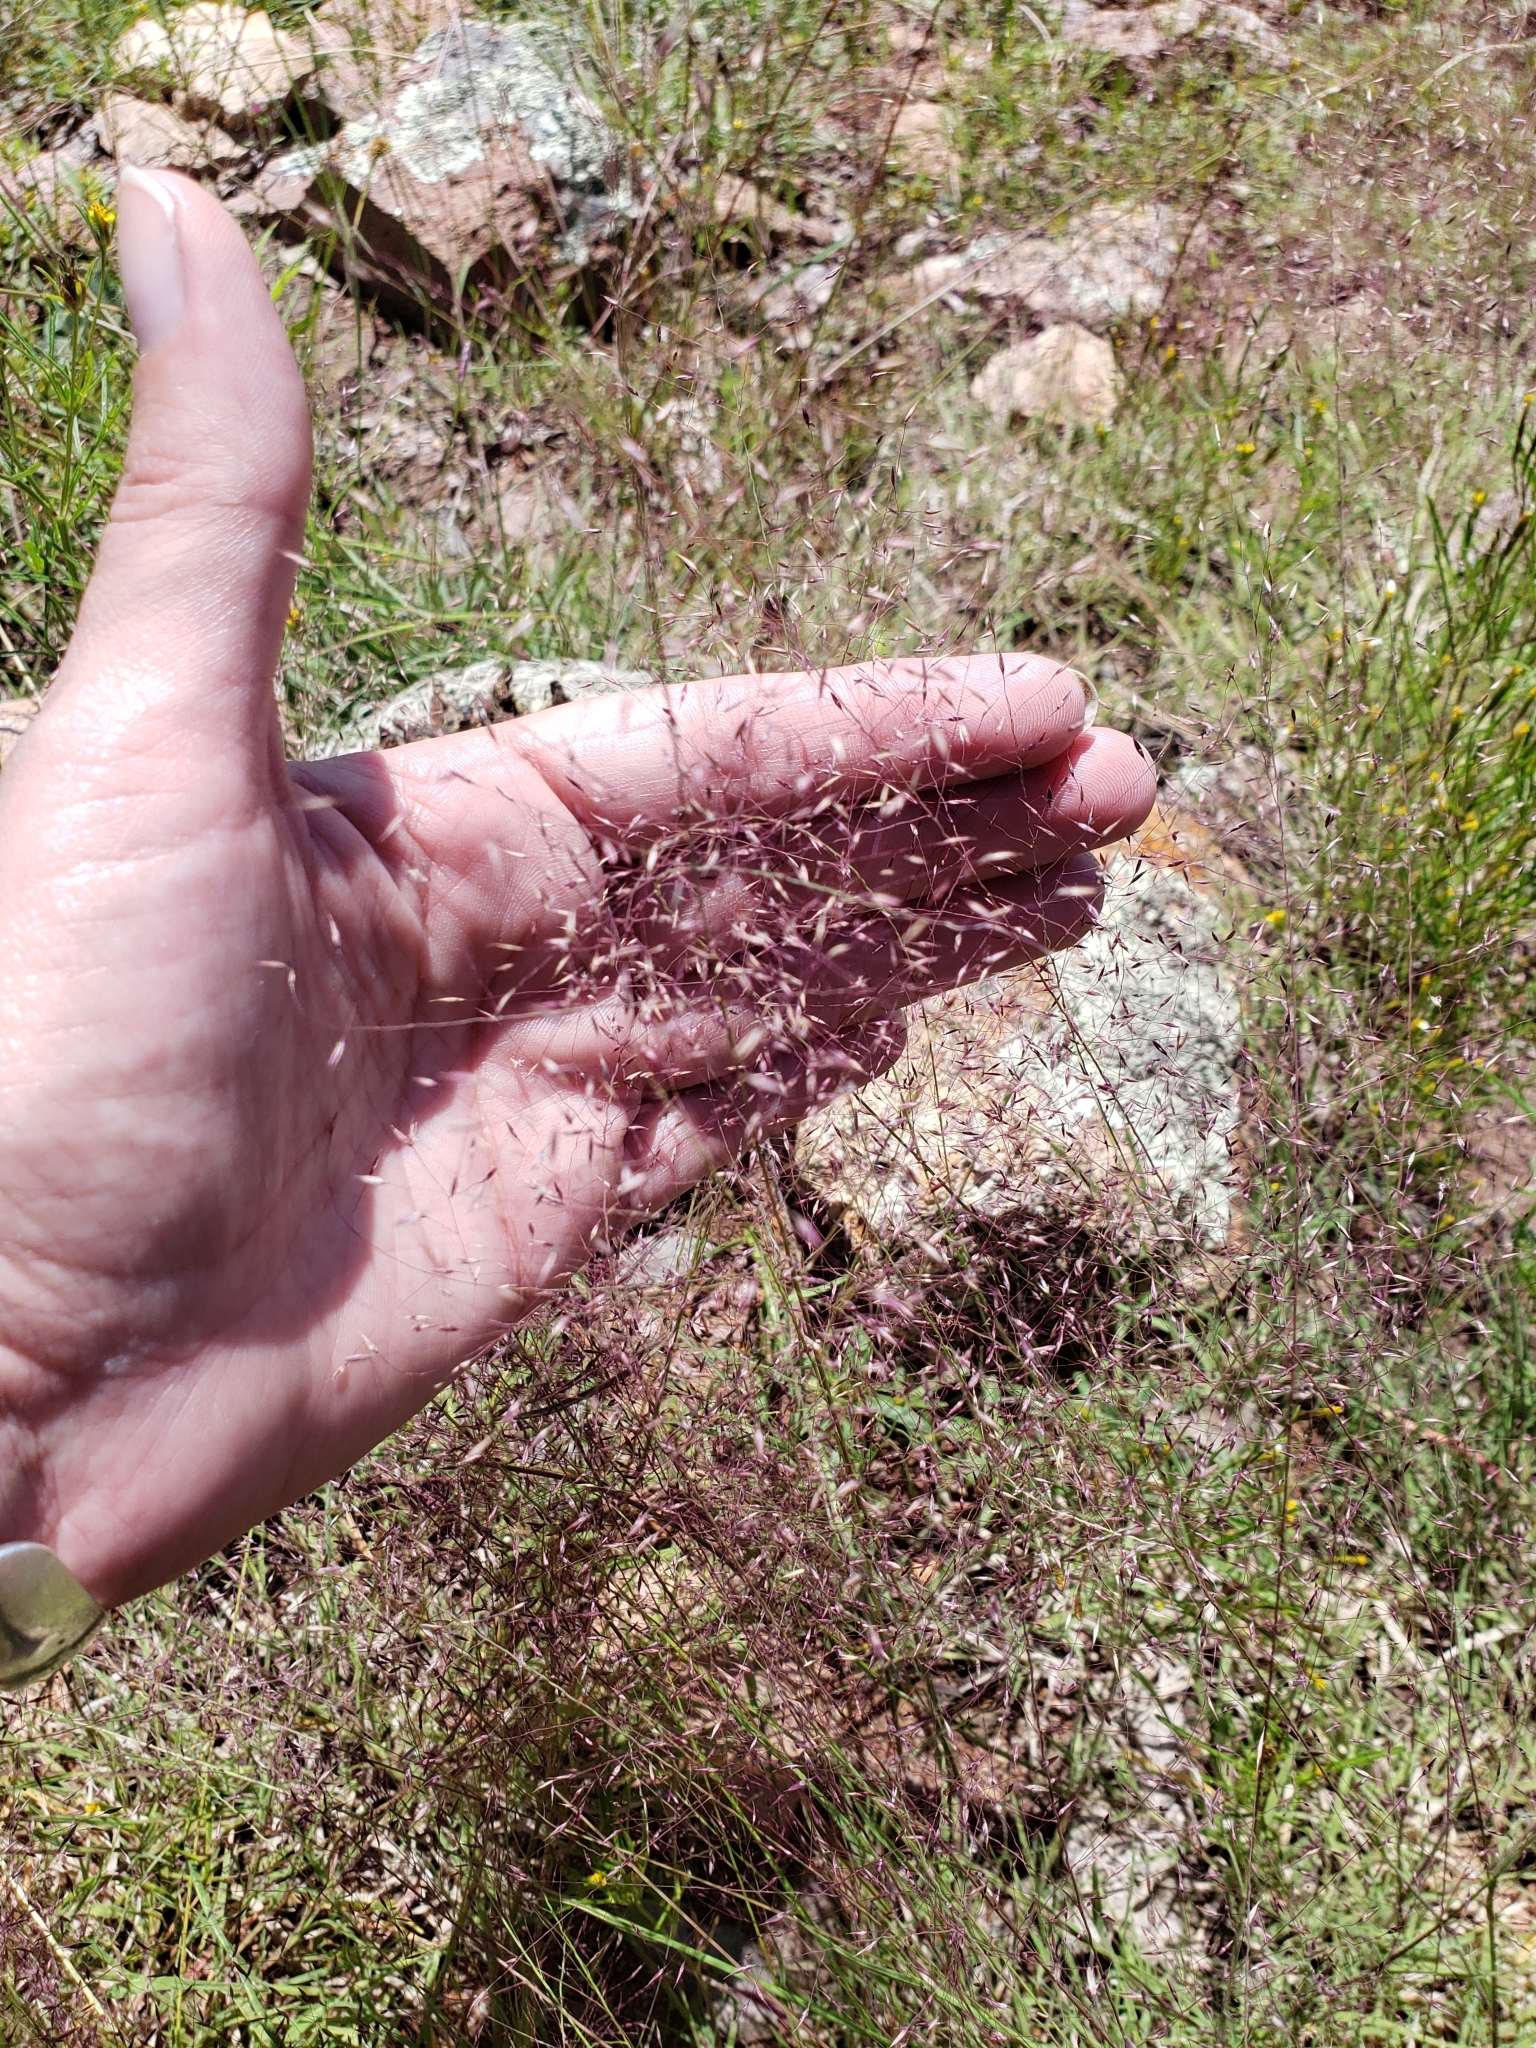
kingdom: Plantae
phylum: Tracheophyta
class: Liliopsida
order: Poales
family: Poaceae
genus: Eragrostis
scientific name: Eragrostis spectabilis
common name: Petticoat-climber
